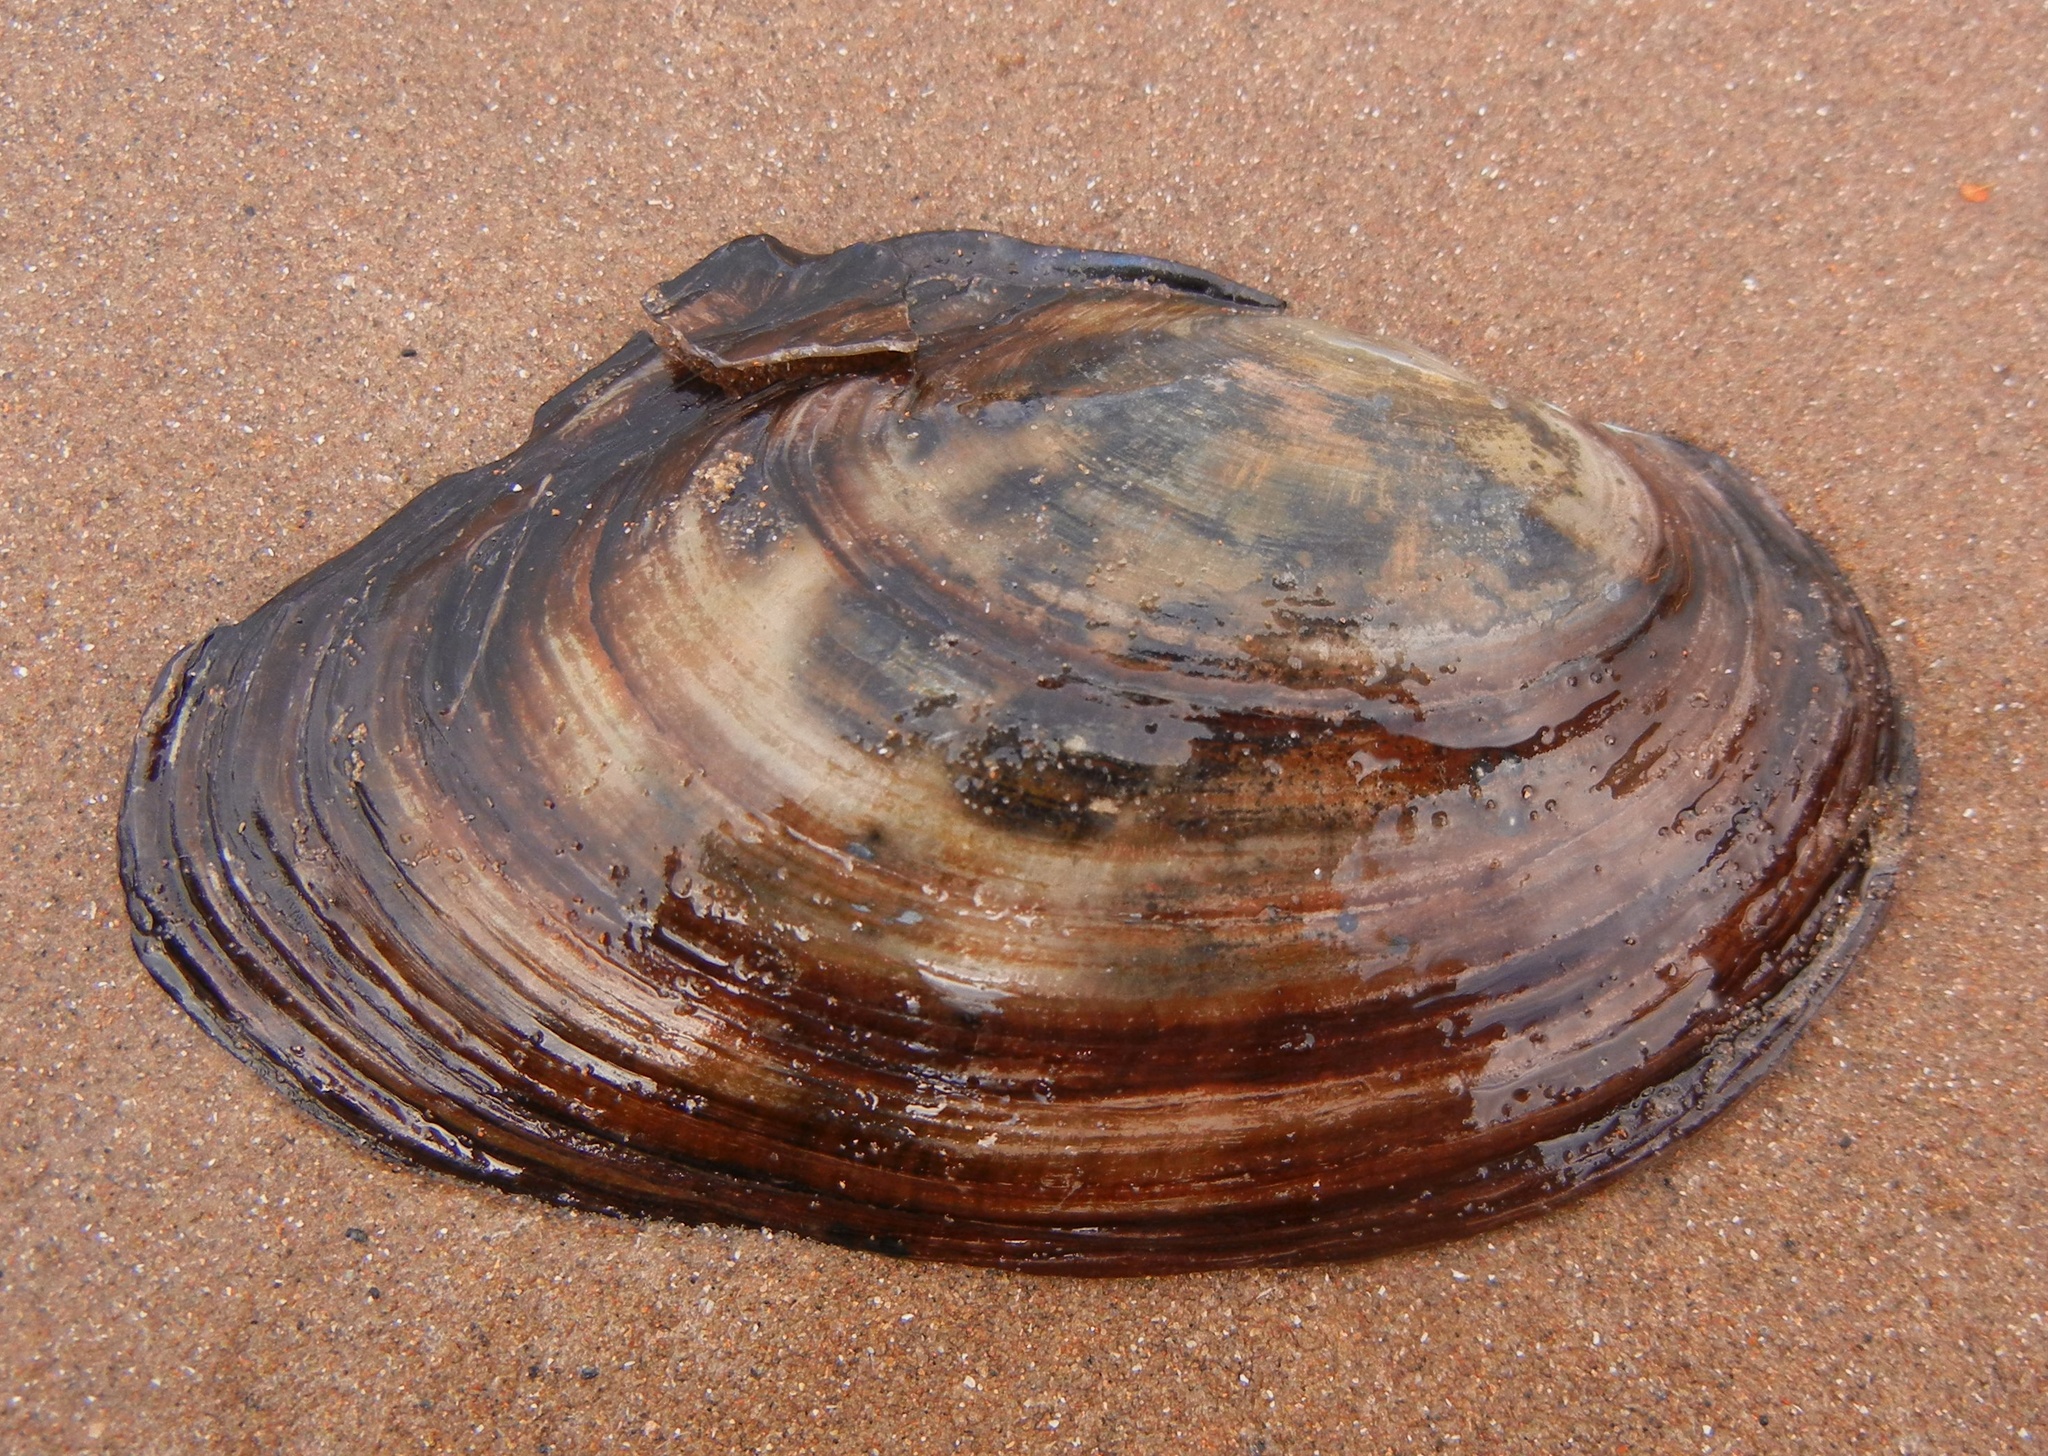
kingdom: Animalia
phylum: Mollusca
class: Bivalvia
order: Unionida
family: Unionidae
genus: Anodonta
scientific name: Anodonta anatina
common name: Duck mussel
